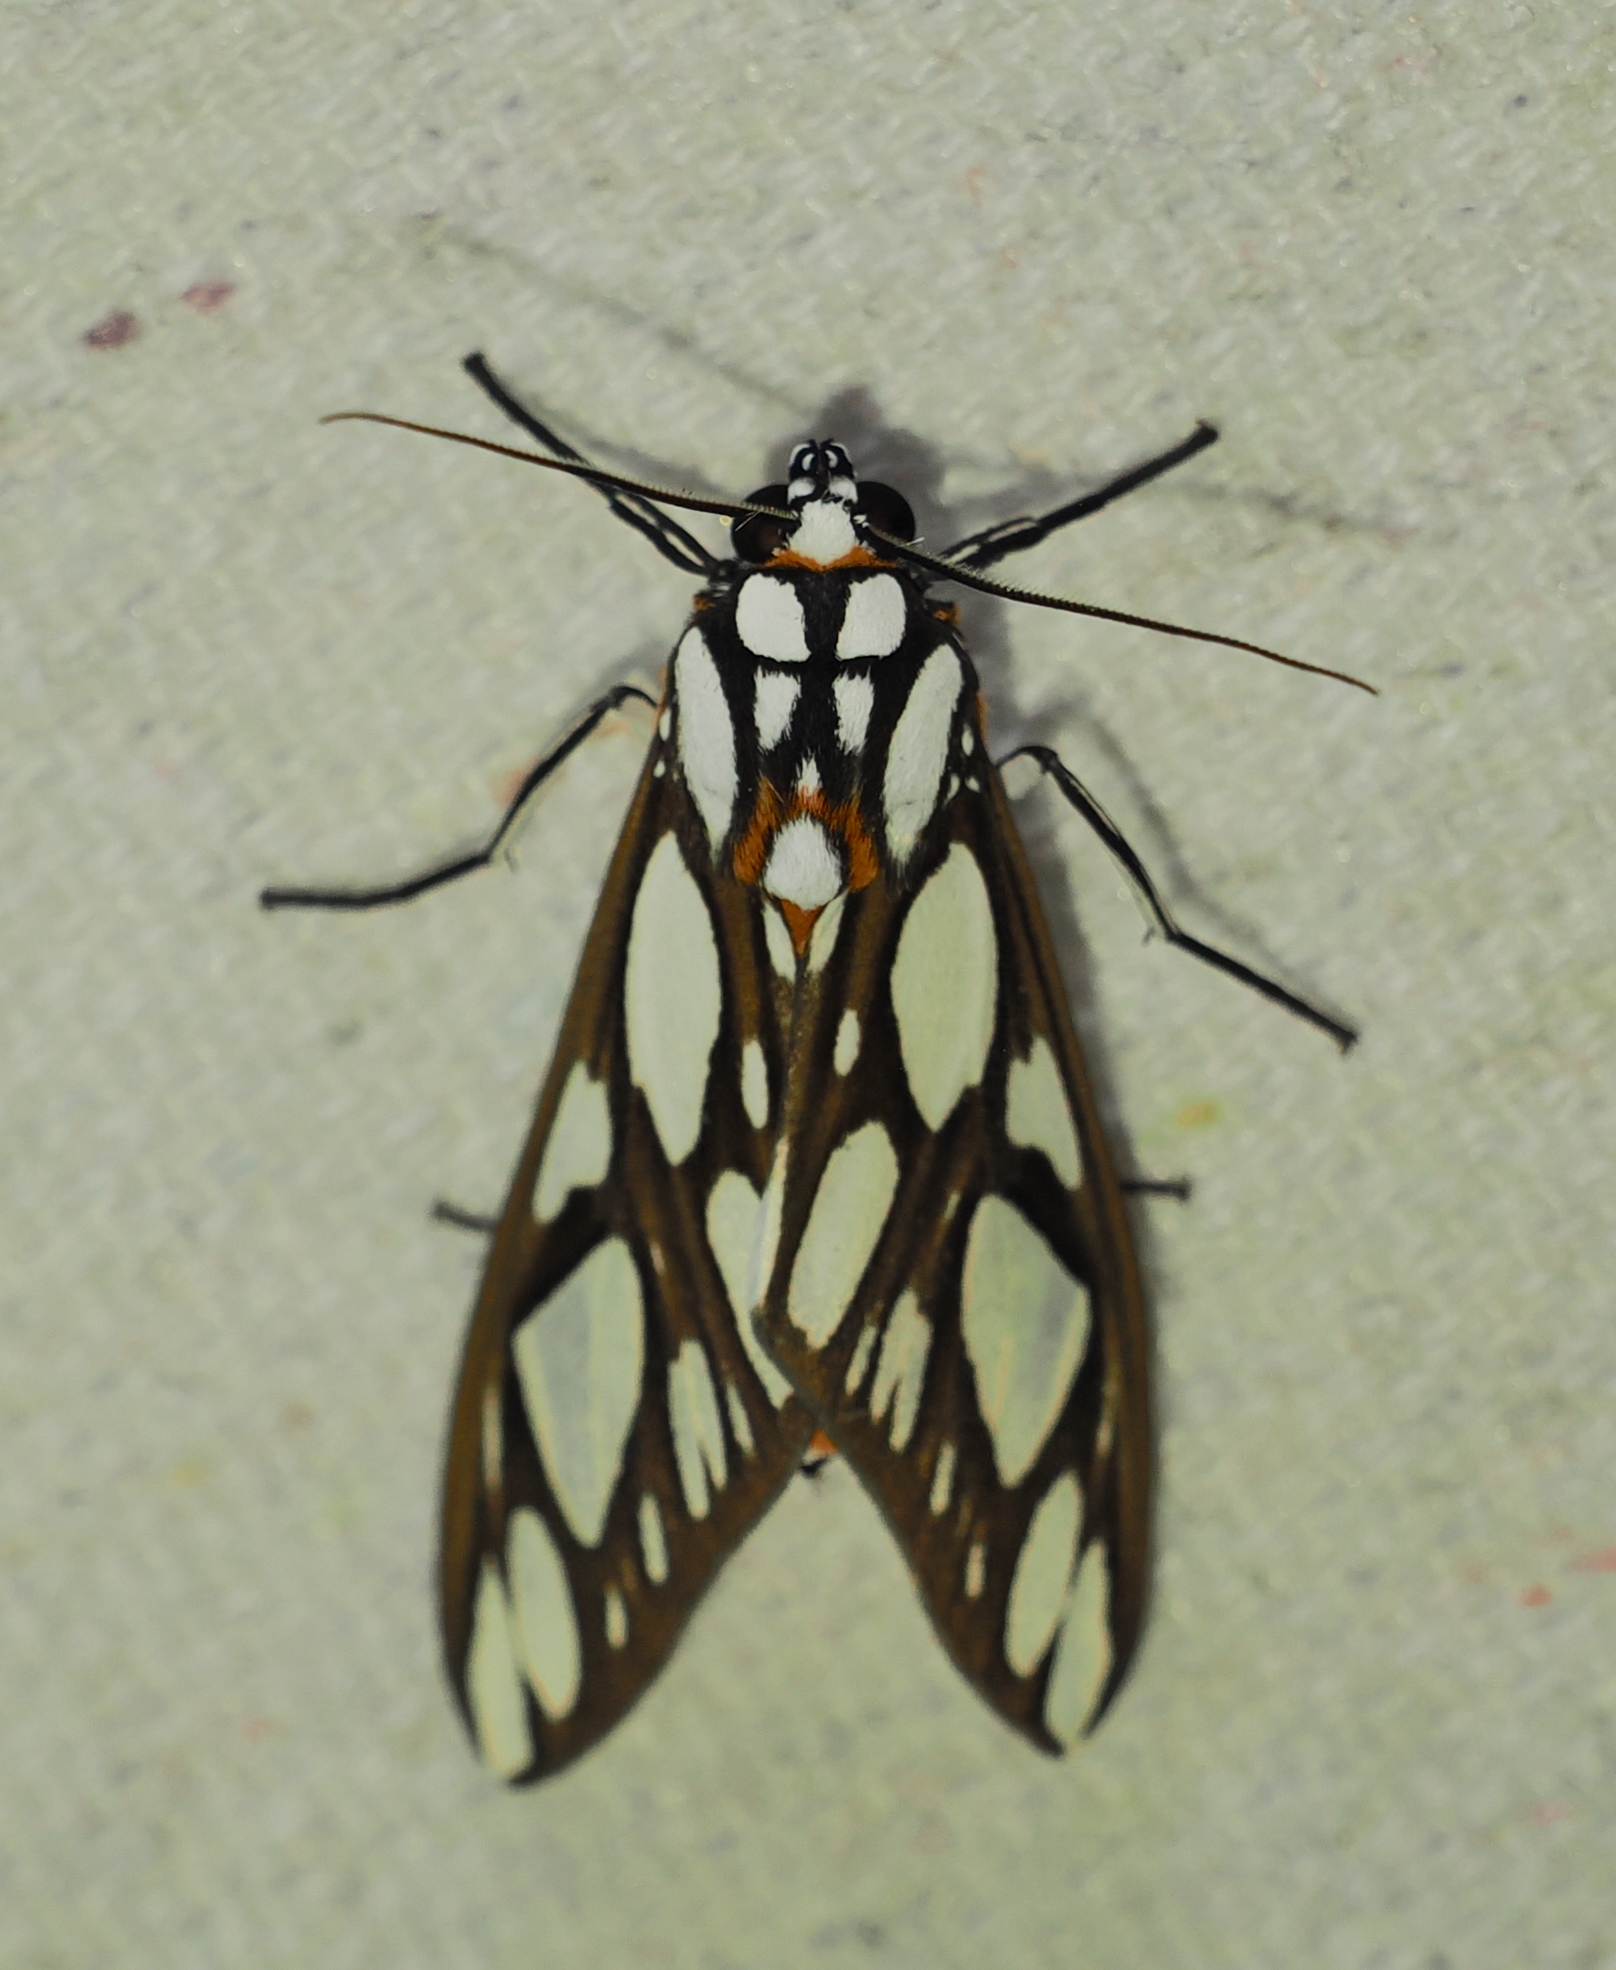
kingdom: Animalia
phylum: Arthropoda
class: Insecta
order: Lepidoptera
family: Erebidae
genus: Robinsonia
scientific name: Robinsonia multimaculata
